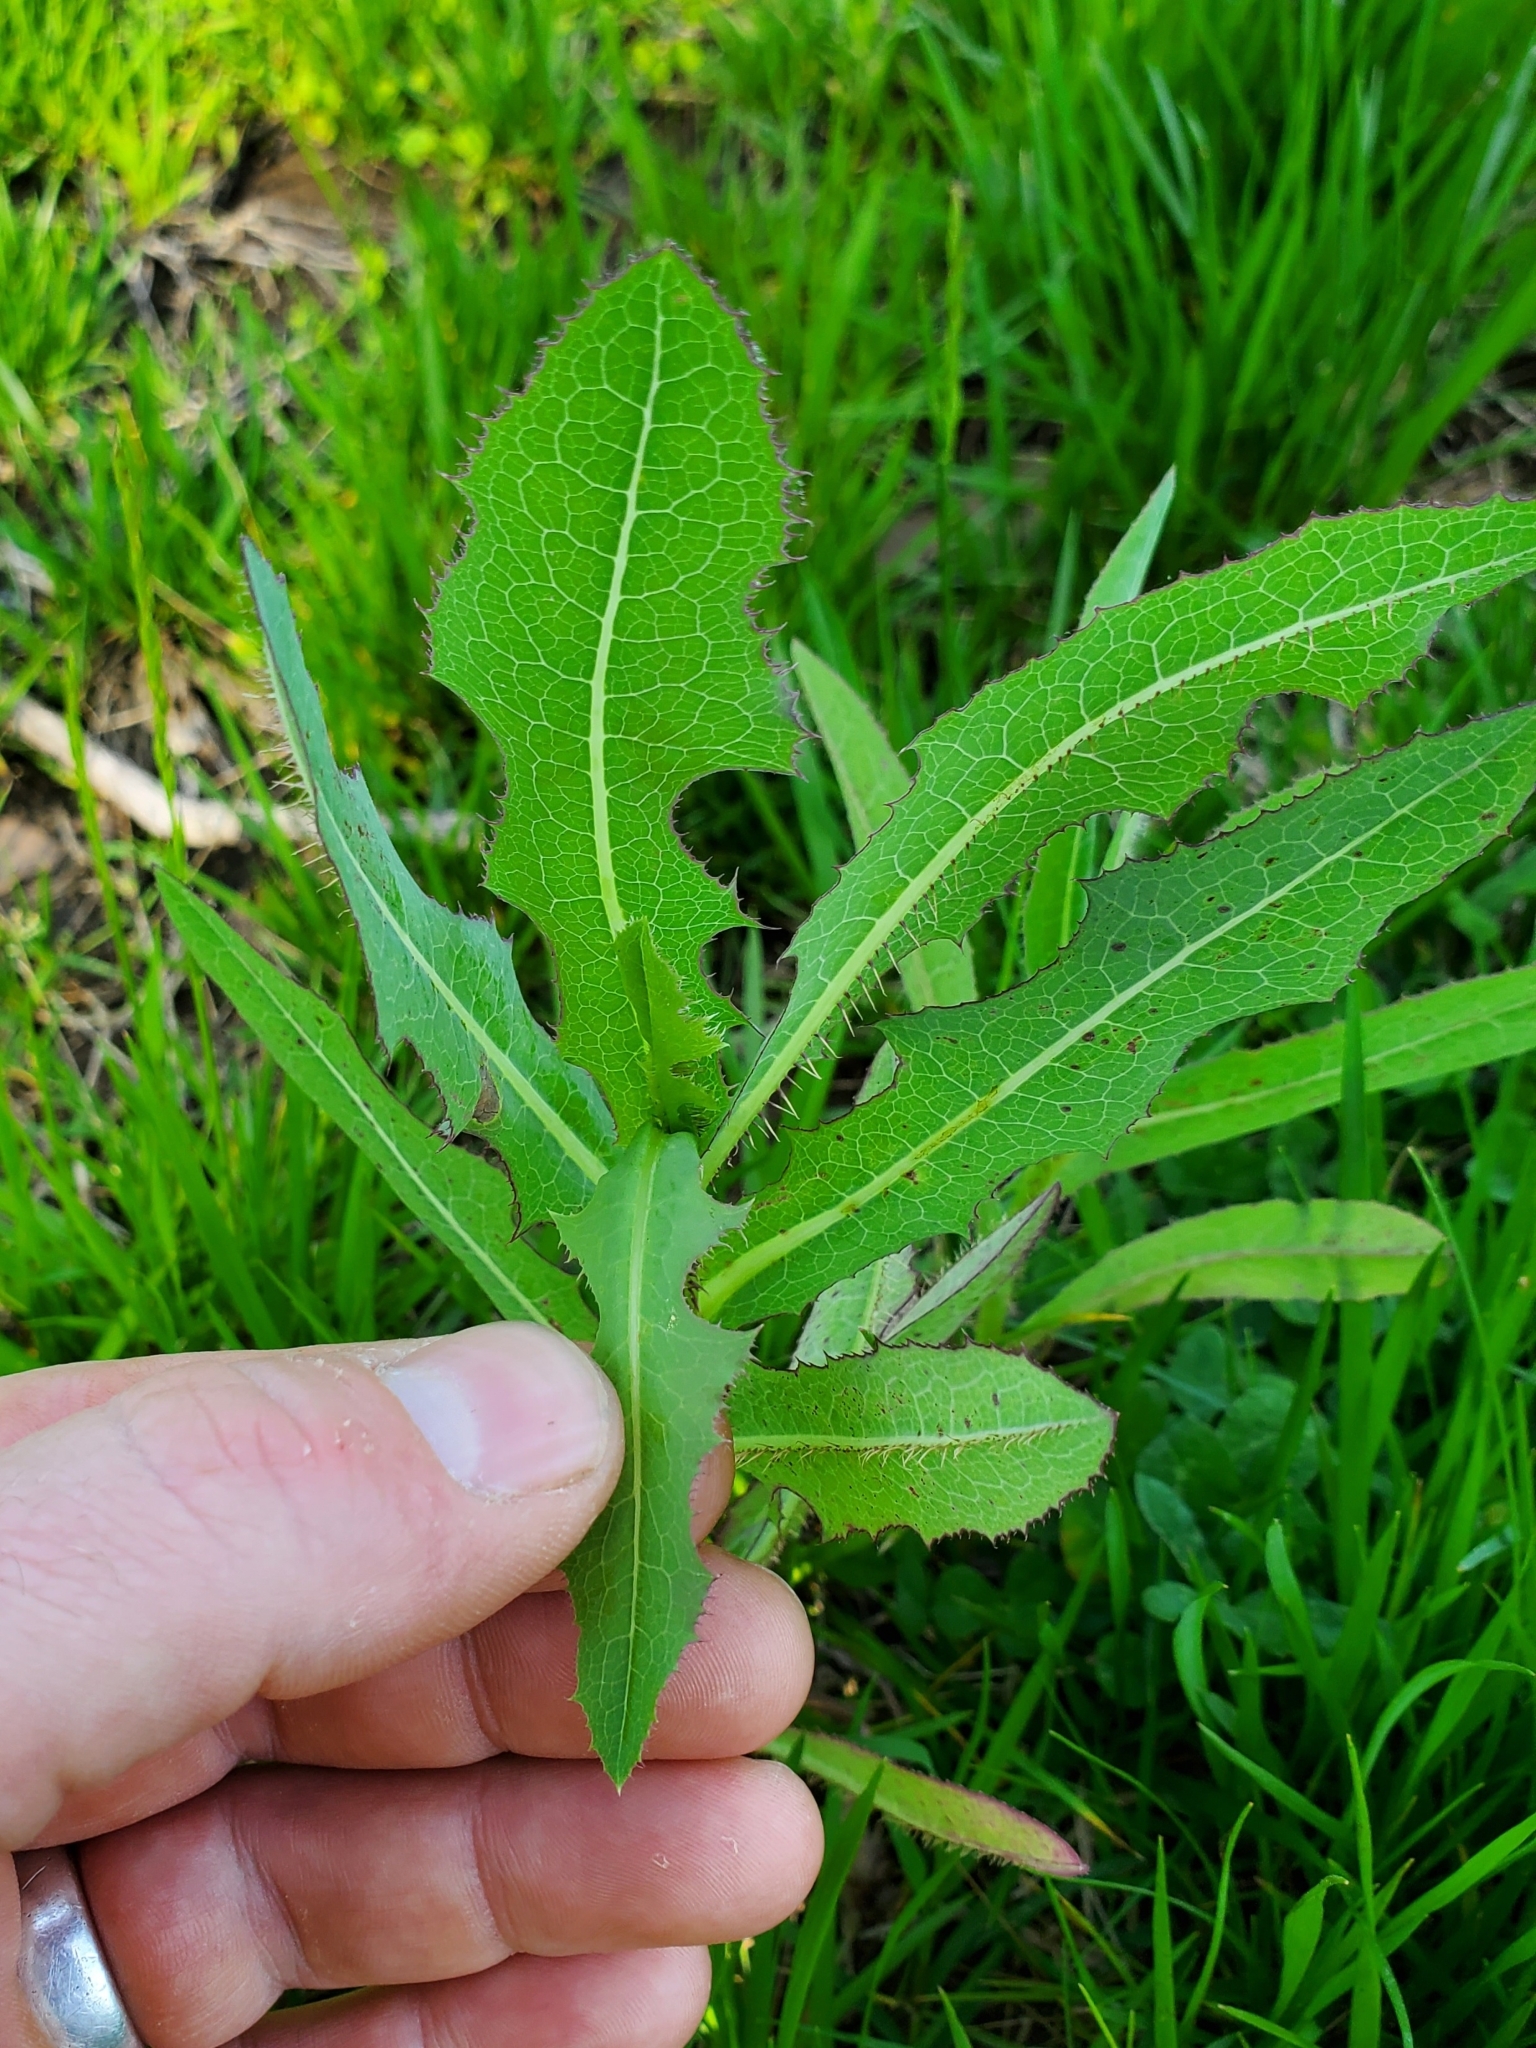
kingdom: Plantae
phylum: Tracheophyta
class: Magnoliopsida
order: Asterales
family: Asteraceae
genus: Lactuca
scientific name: Lactuca serriola
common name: Prickly lettuce
